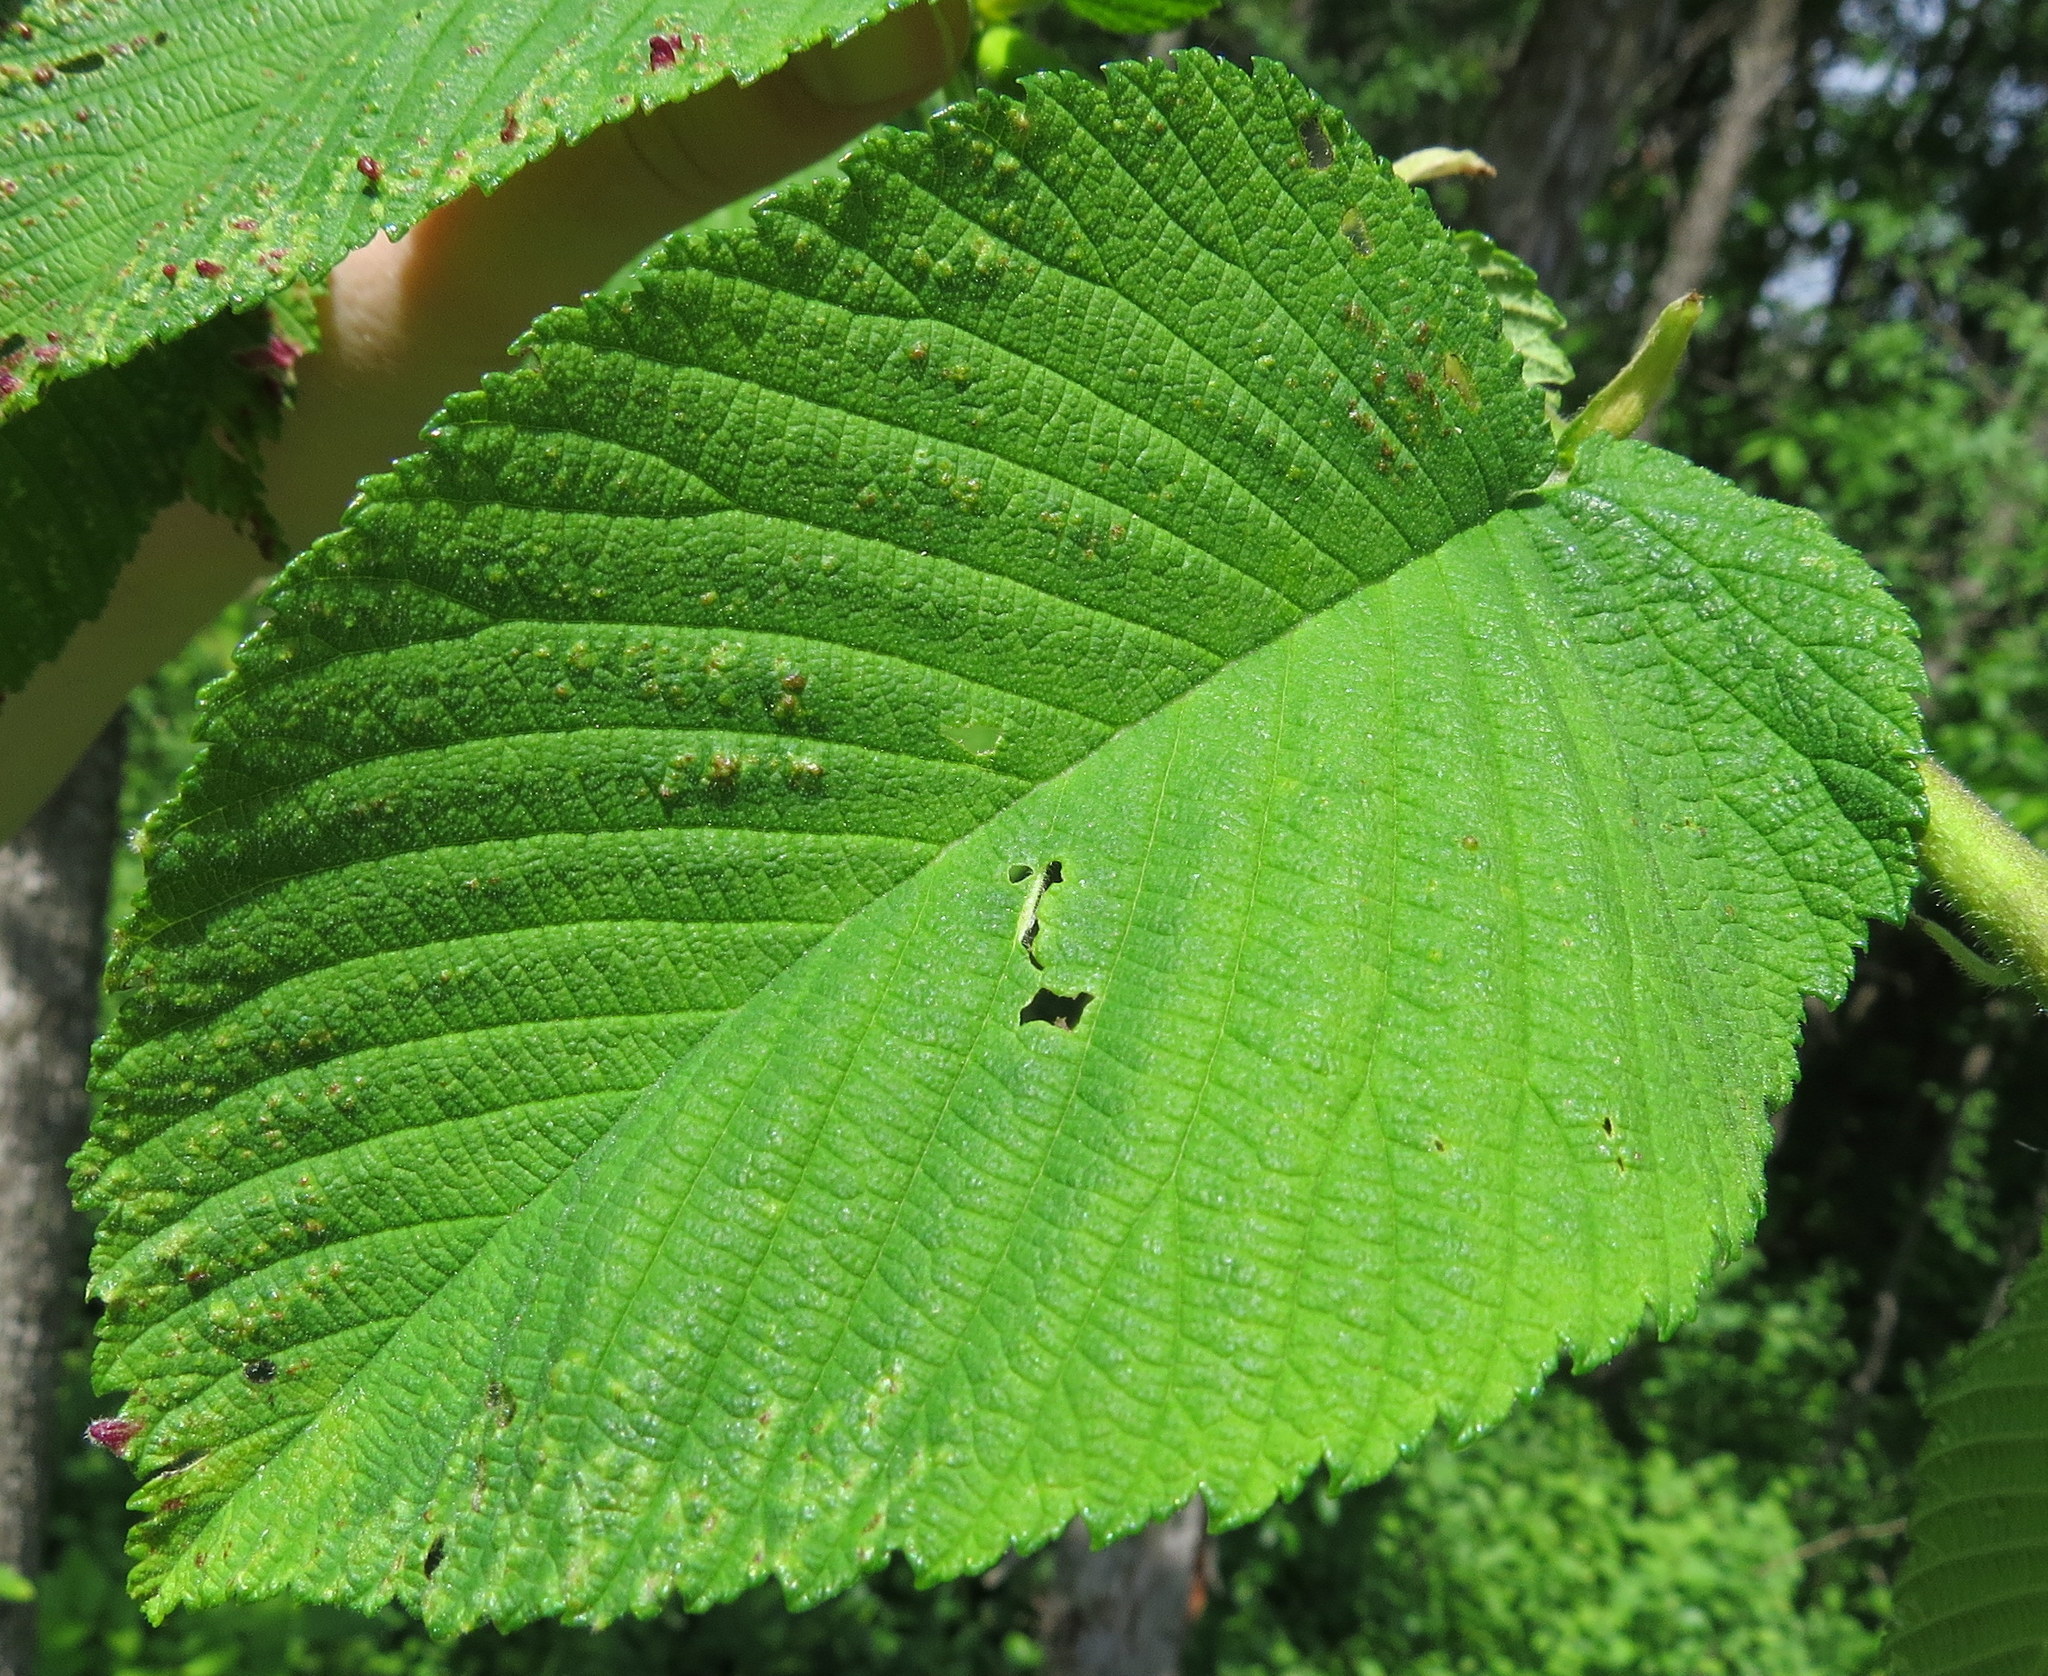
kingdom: Plantae
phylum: Tracheophyta
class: Magnoliopsida
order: Rosales
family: Ulmaceae
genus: Ulmus
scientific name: Ulmus rubra
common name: Slippery elm
